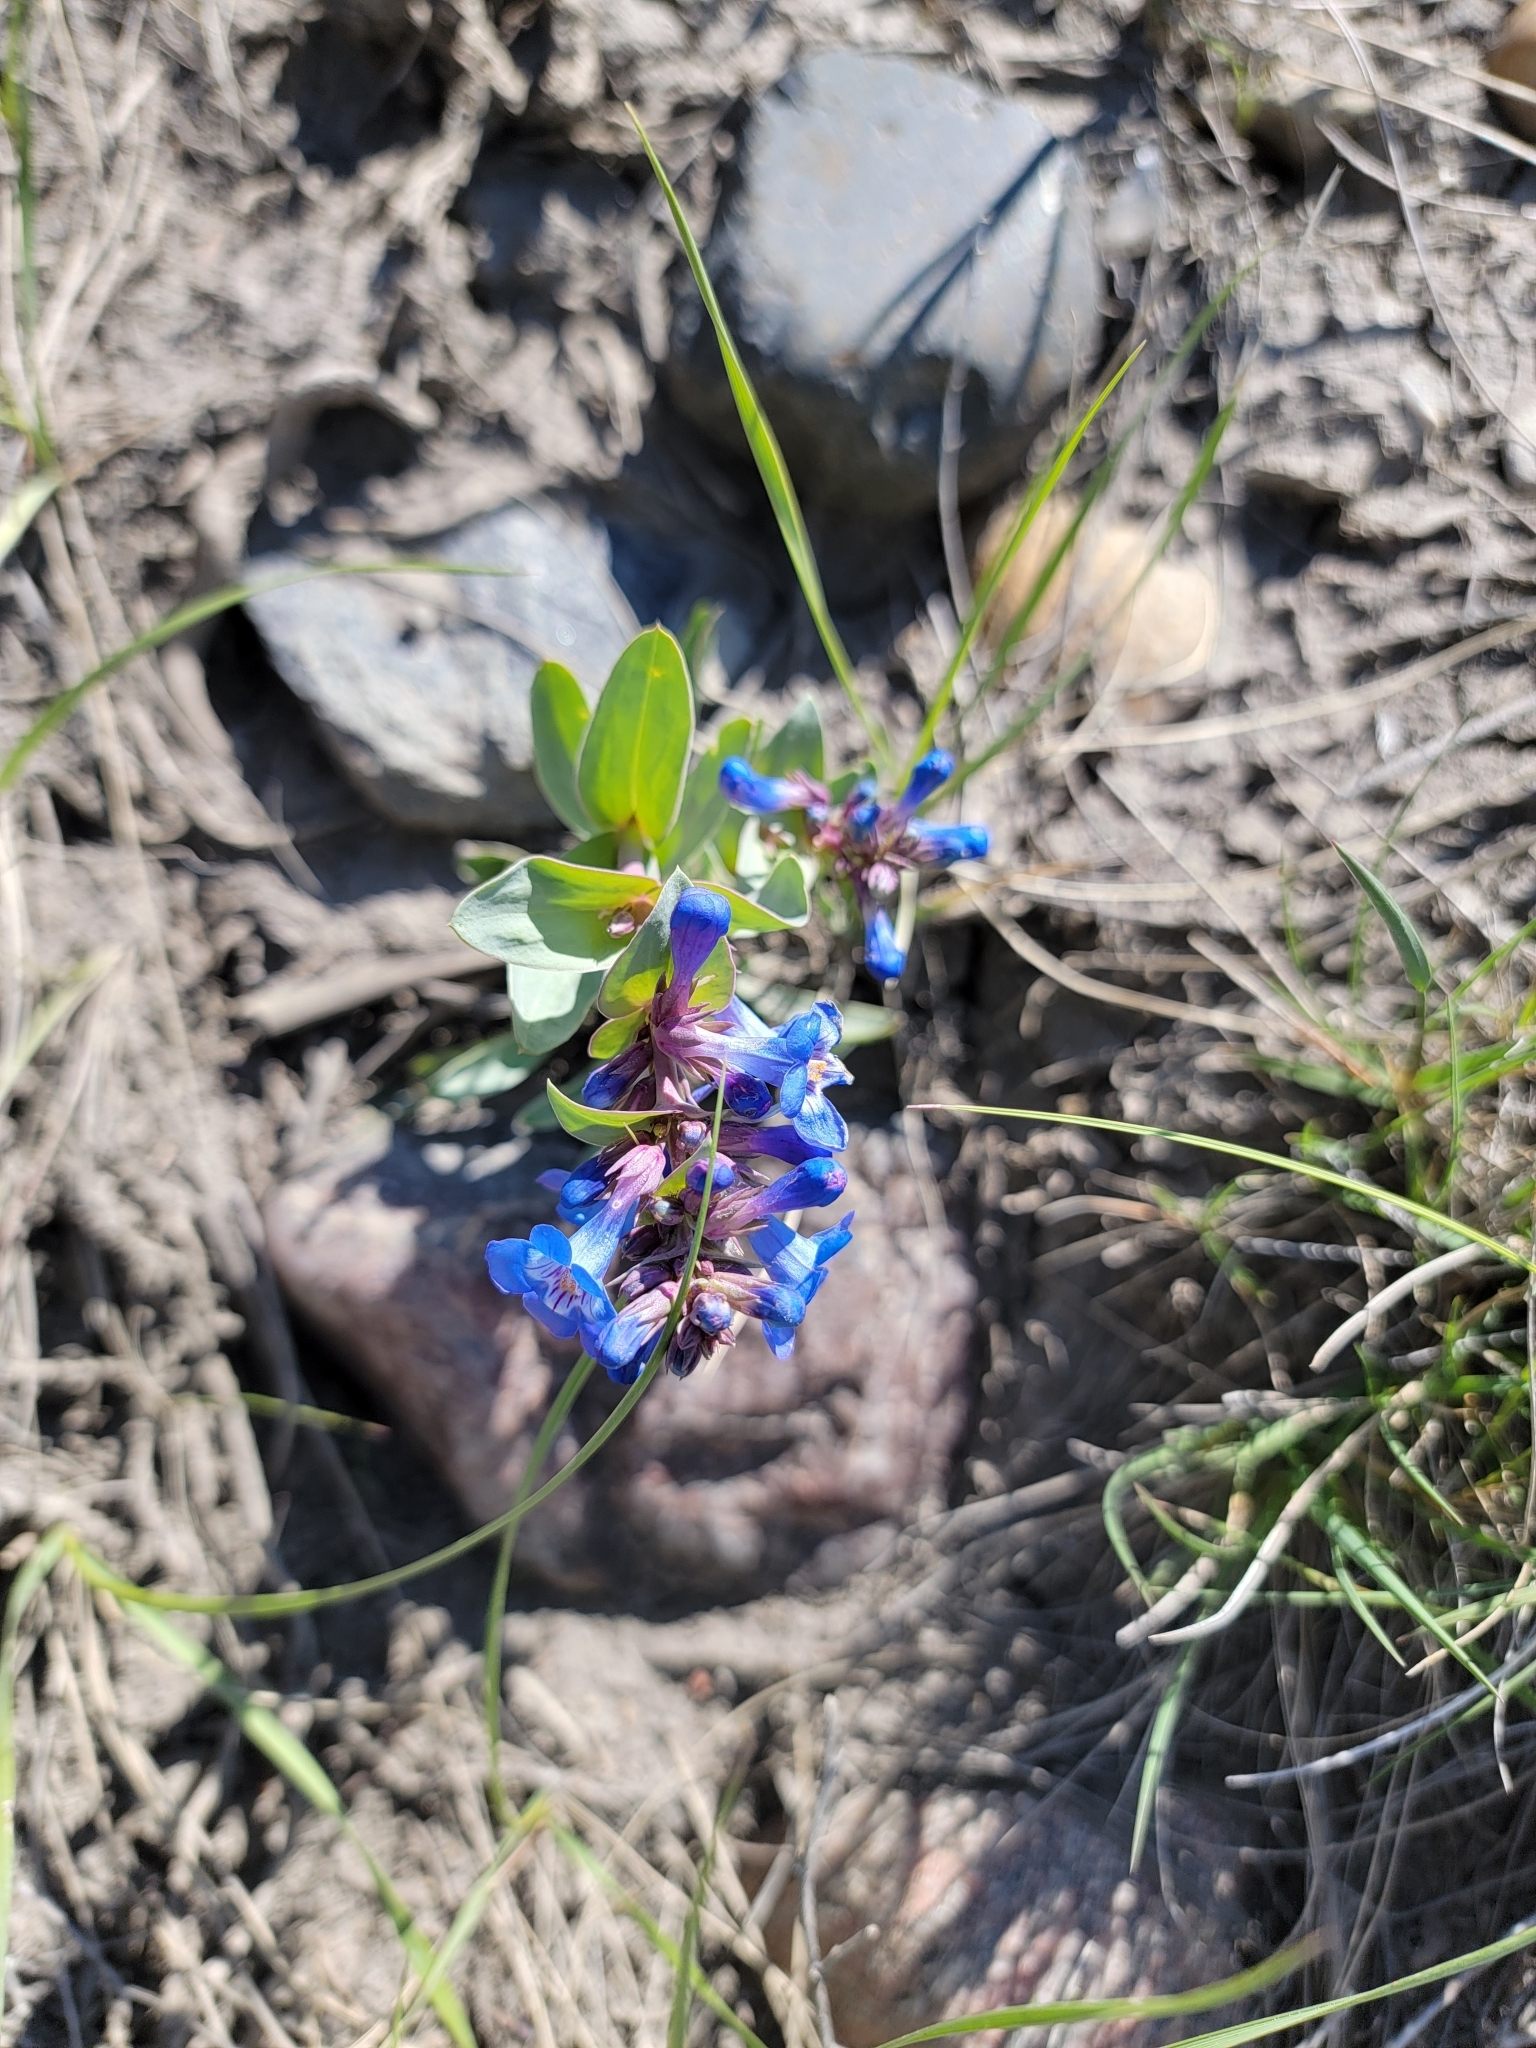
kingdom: Plantae
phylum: Tracheophyta
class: Magnoliopsida
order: Lamiales
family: Plantaginaceae
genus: Penstemon
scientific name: Penstemon nitidus
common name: Shining penstemon
